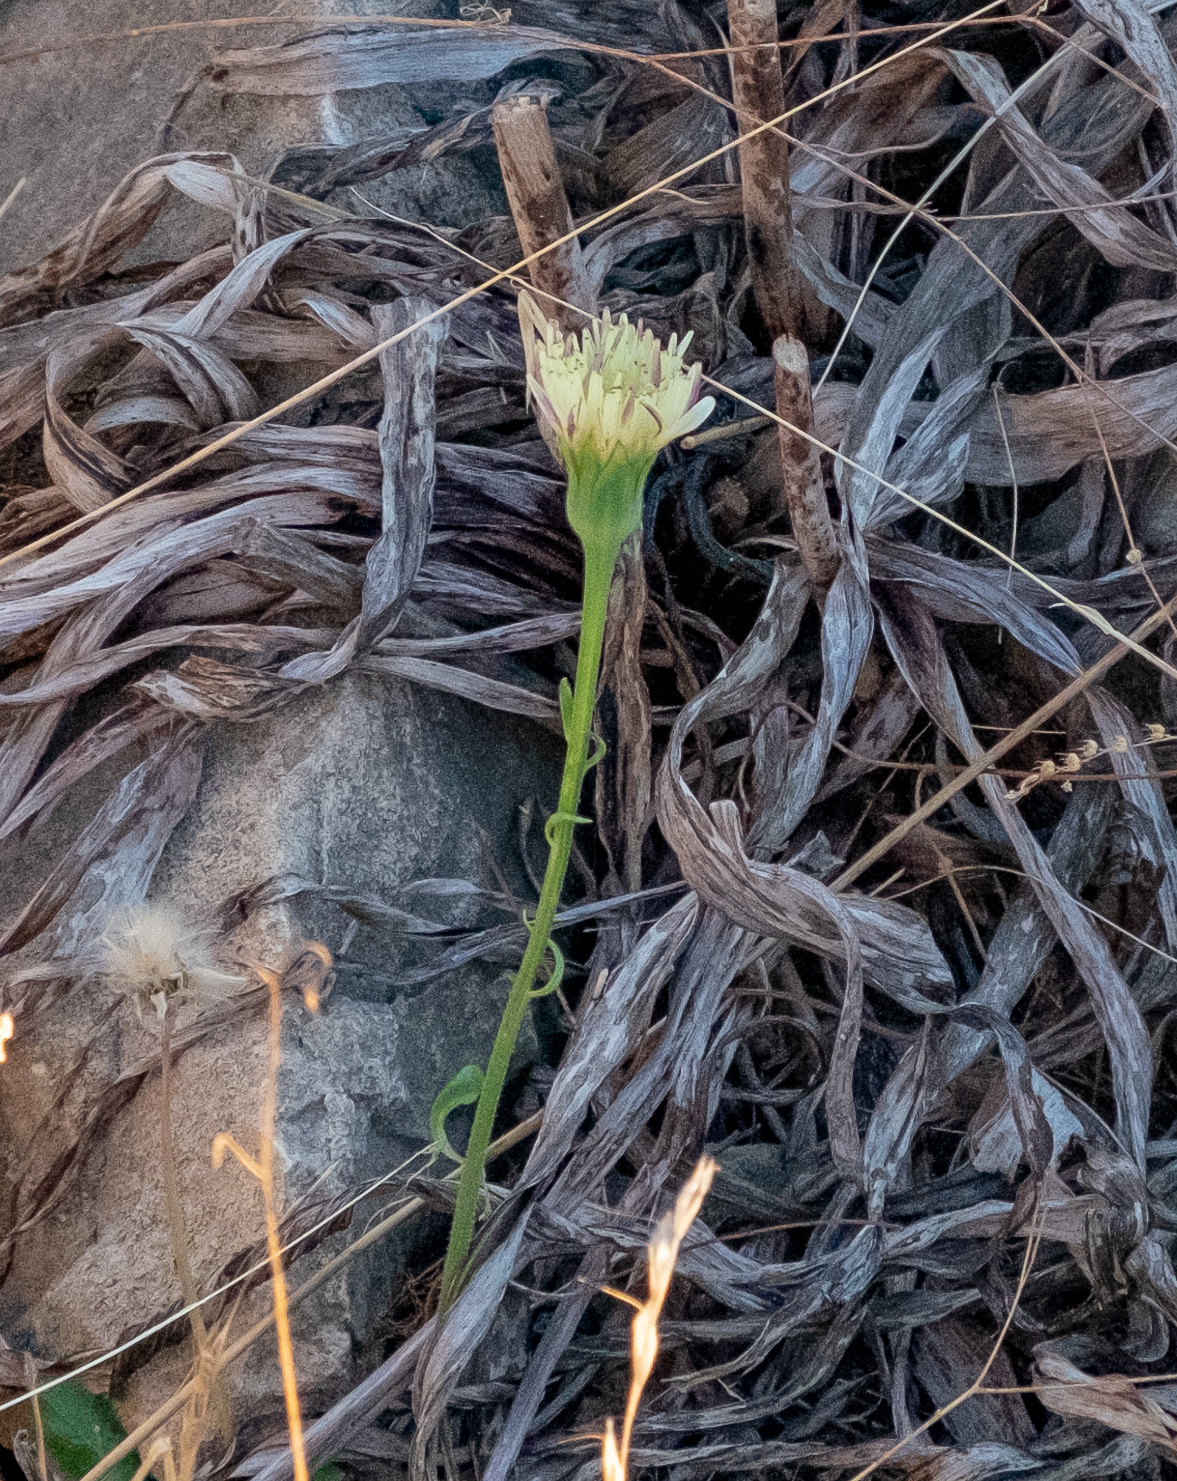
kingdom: Plantae
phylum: Tracheophyta
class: Magnoliopsida
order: Asterales
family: Asteraceae
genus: Urospermum
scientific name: Urospermum dalechampii
